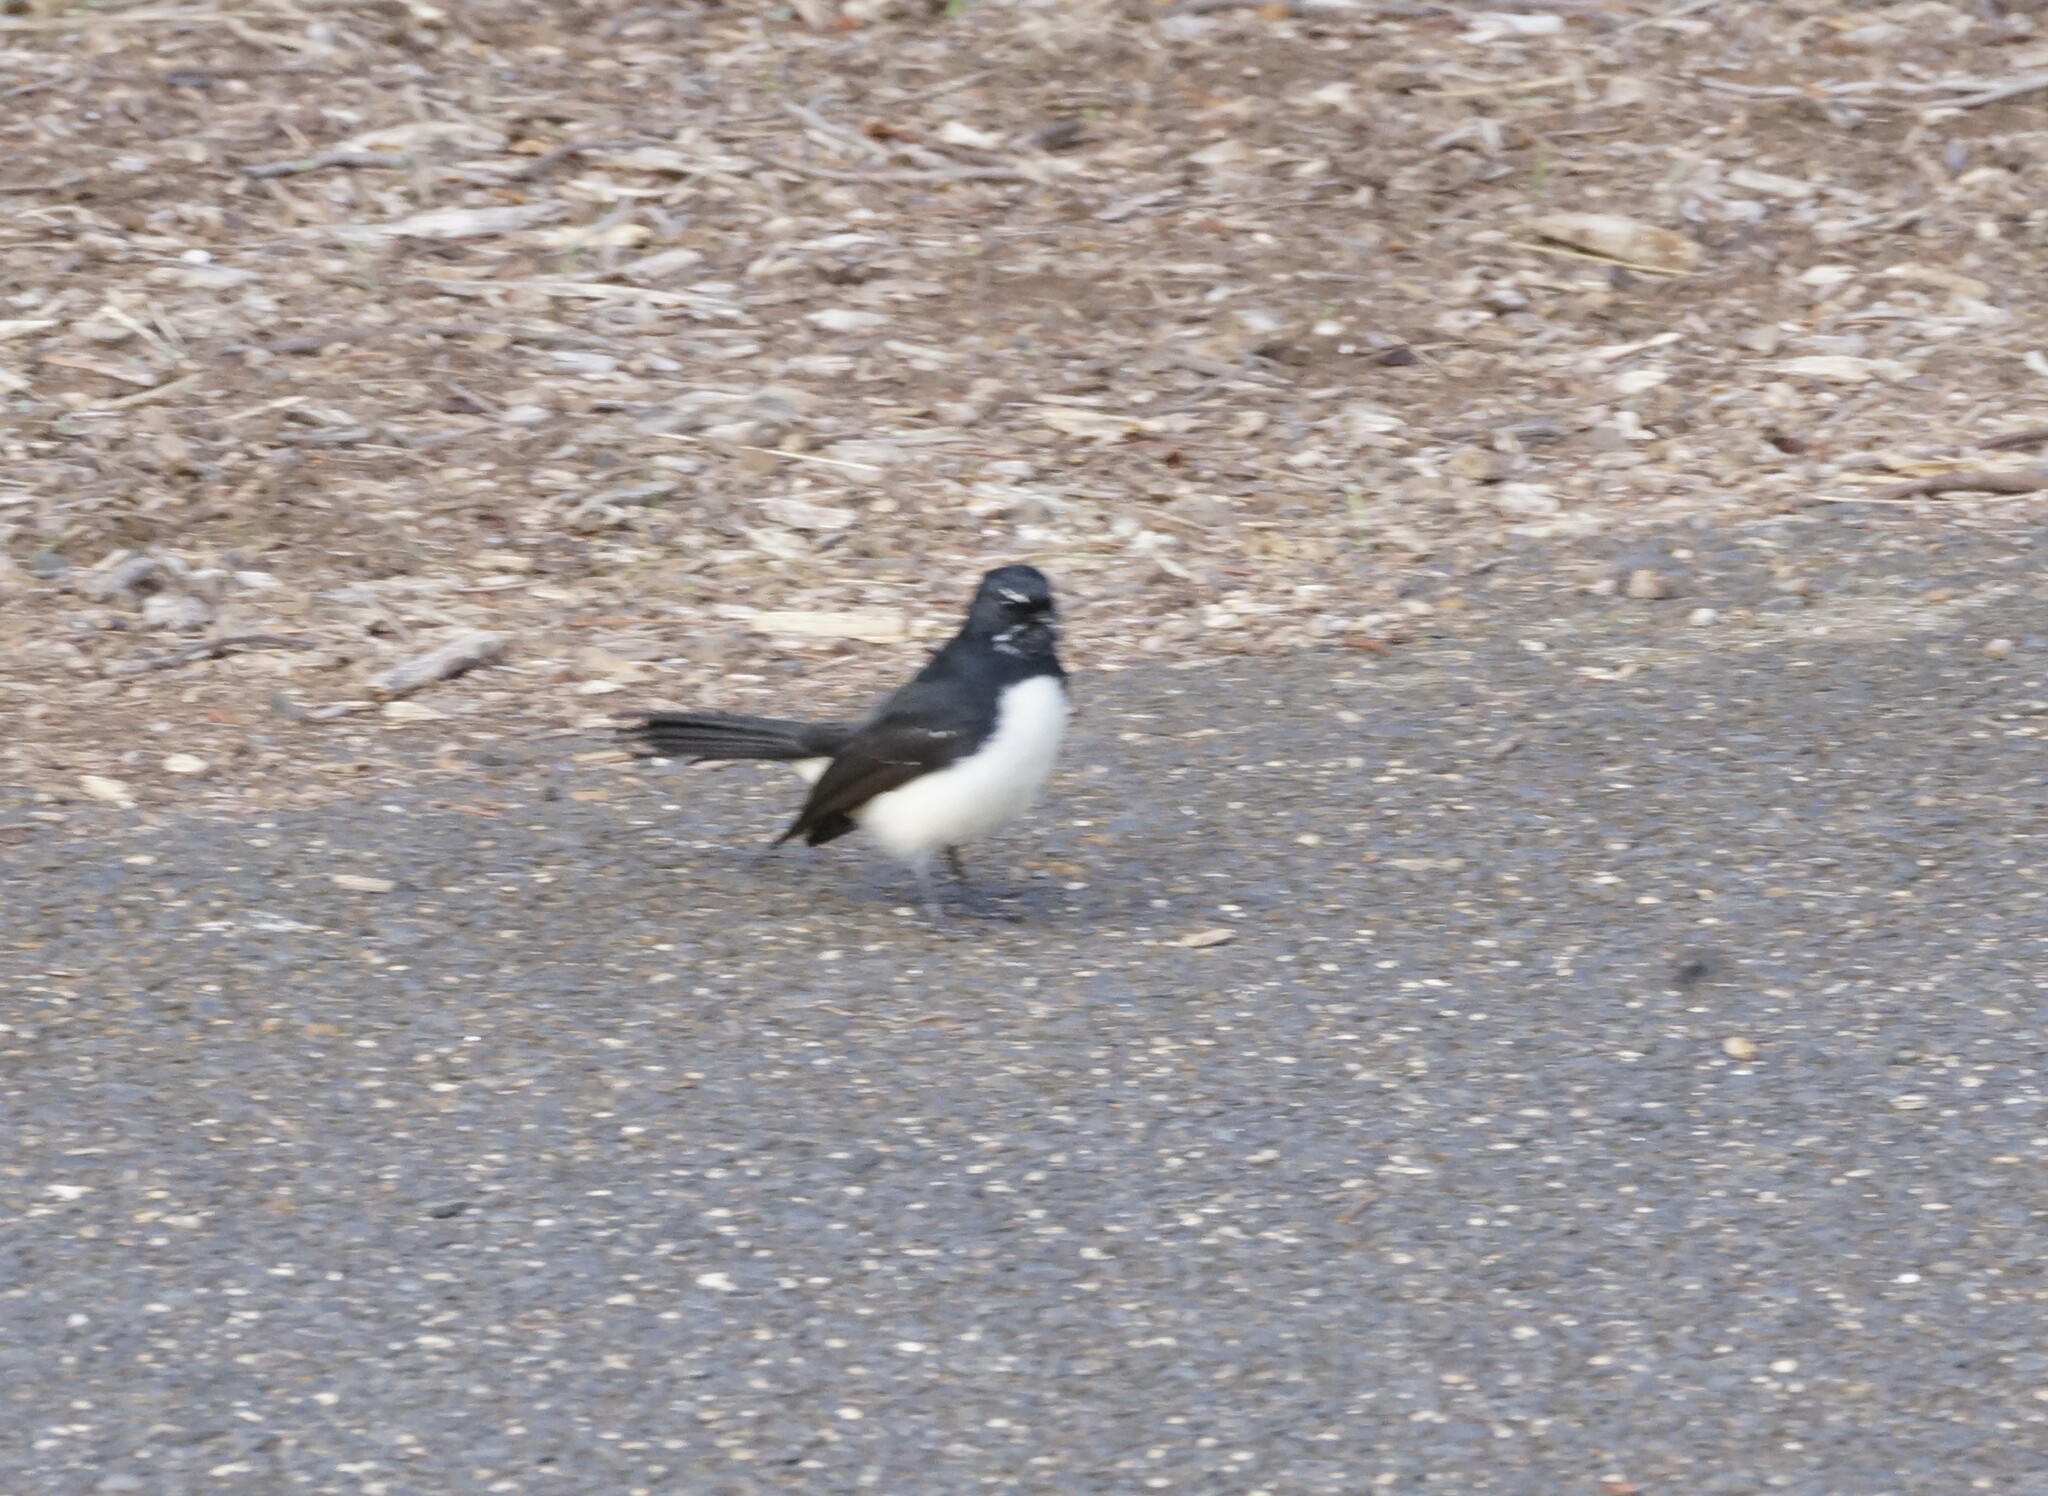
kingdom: Animalia
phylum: Chordata
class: Aves
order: Passeriformes
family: Rhipiduridae
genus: Rhipidura
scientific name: Rhipidura leucophrys
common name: Willie wagtail
